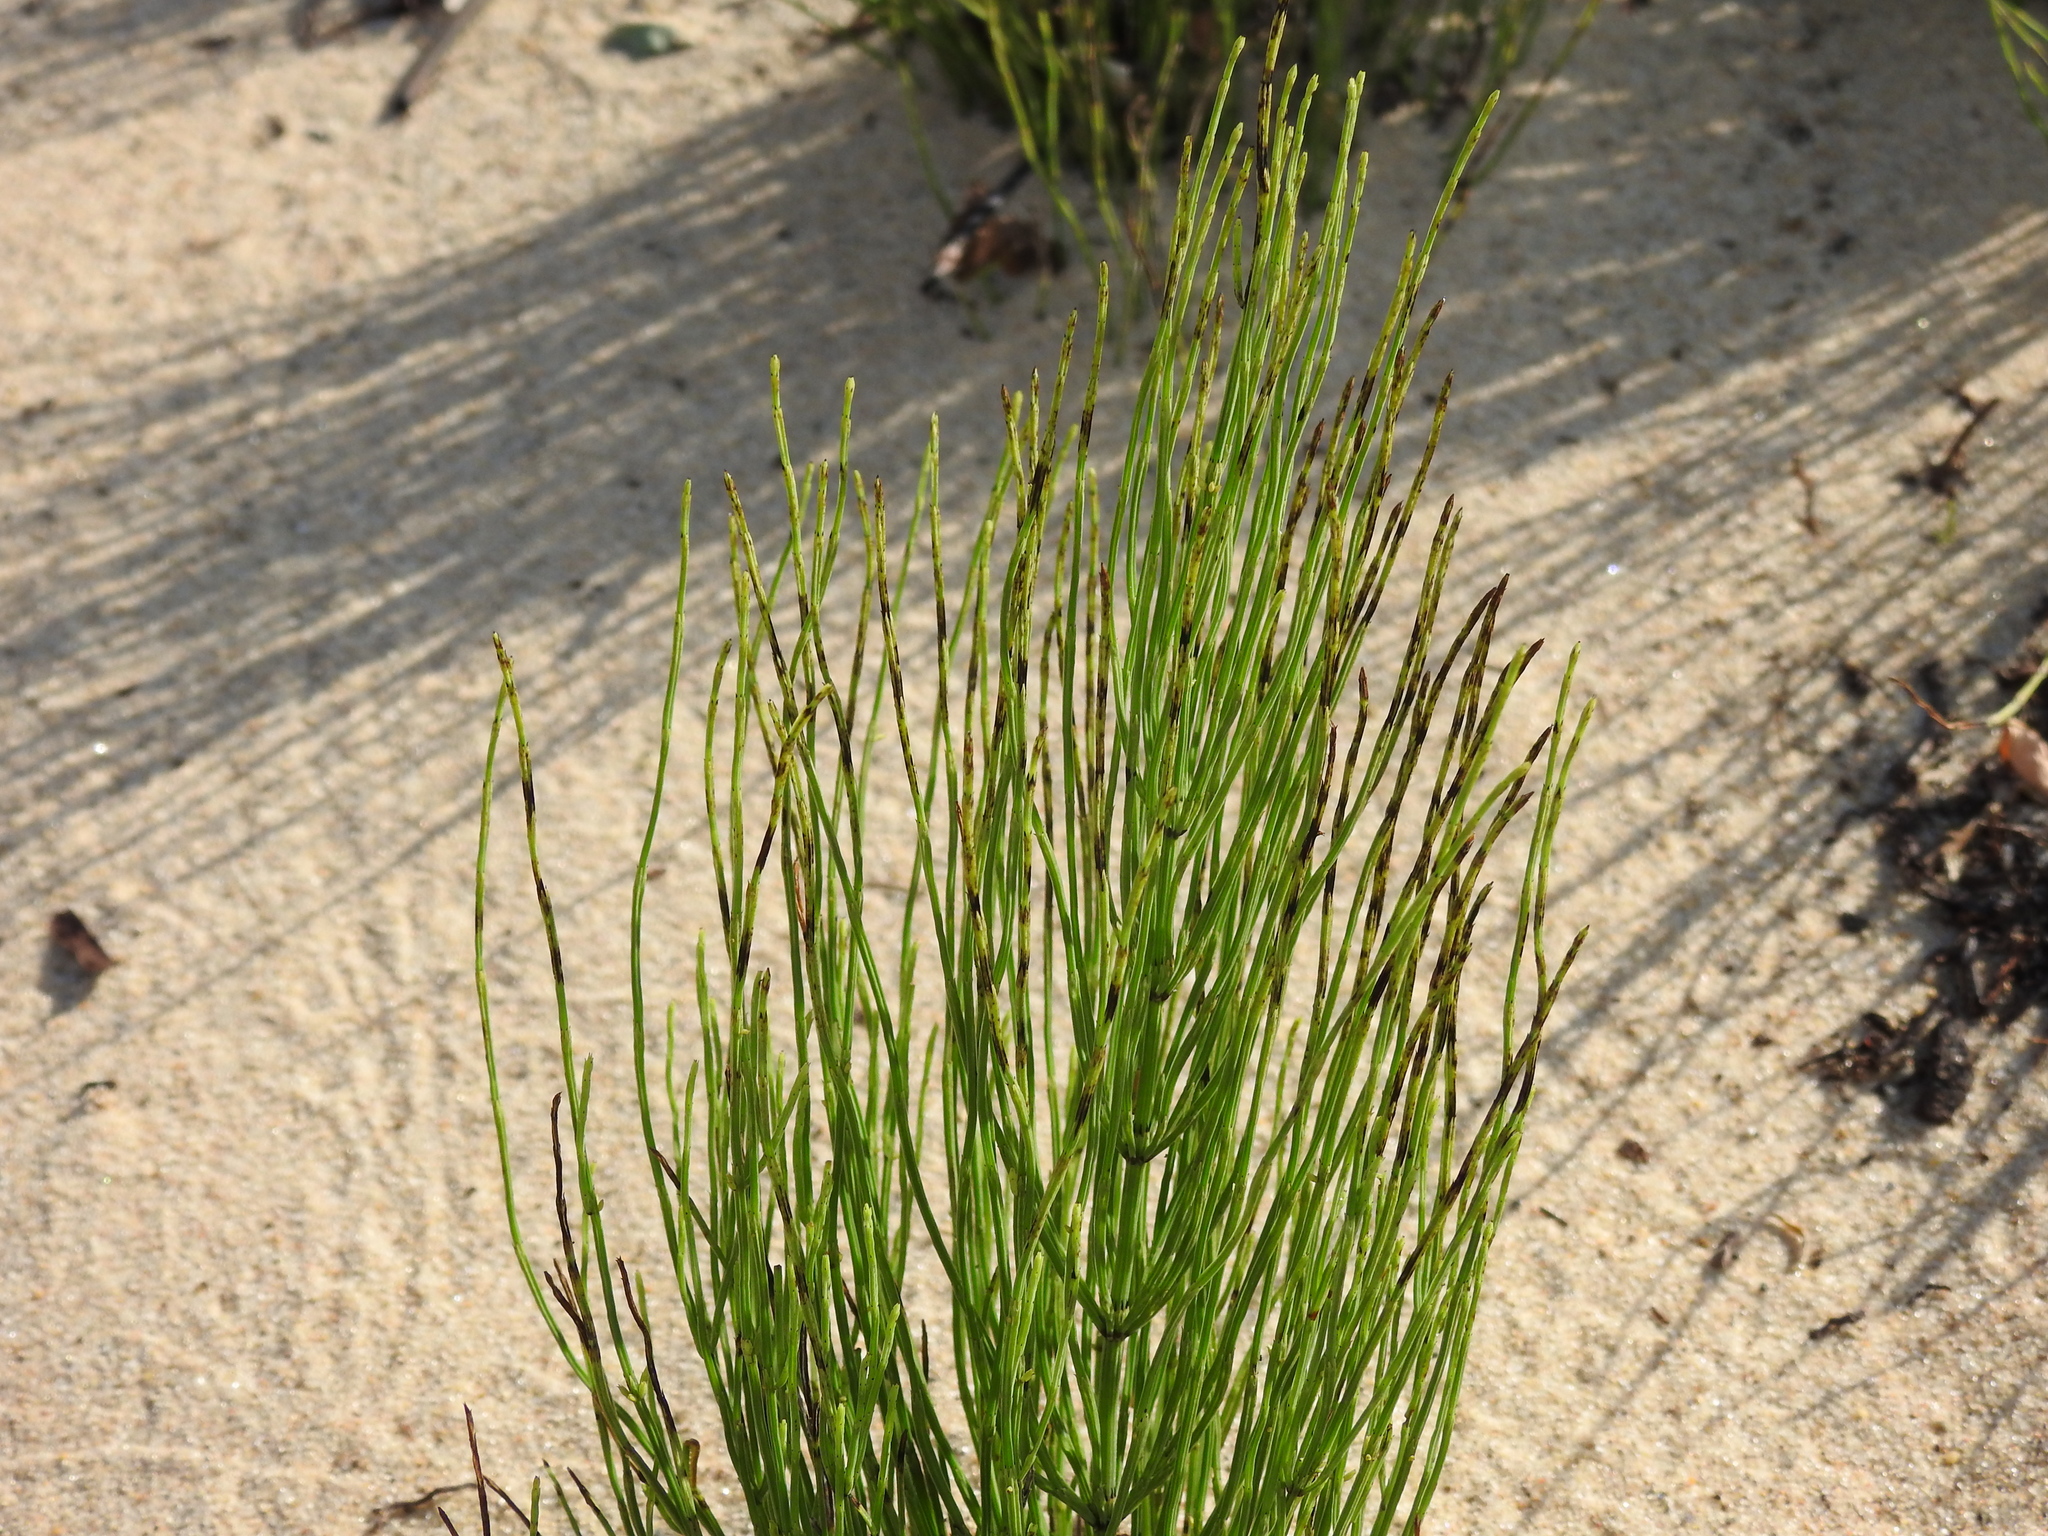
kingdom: Plantae
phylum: Tracheophyta
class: Polypodiopsida
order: Equisetales
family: Equisetaceae
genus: Equisetum
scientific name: Equisetum arvense
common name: Field horsetail
